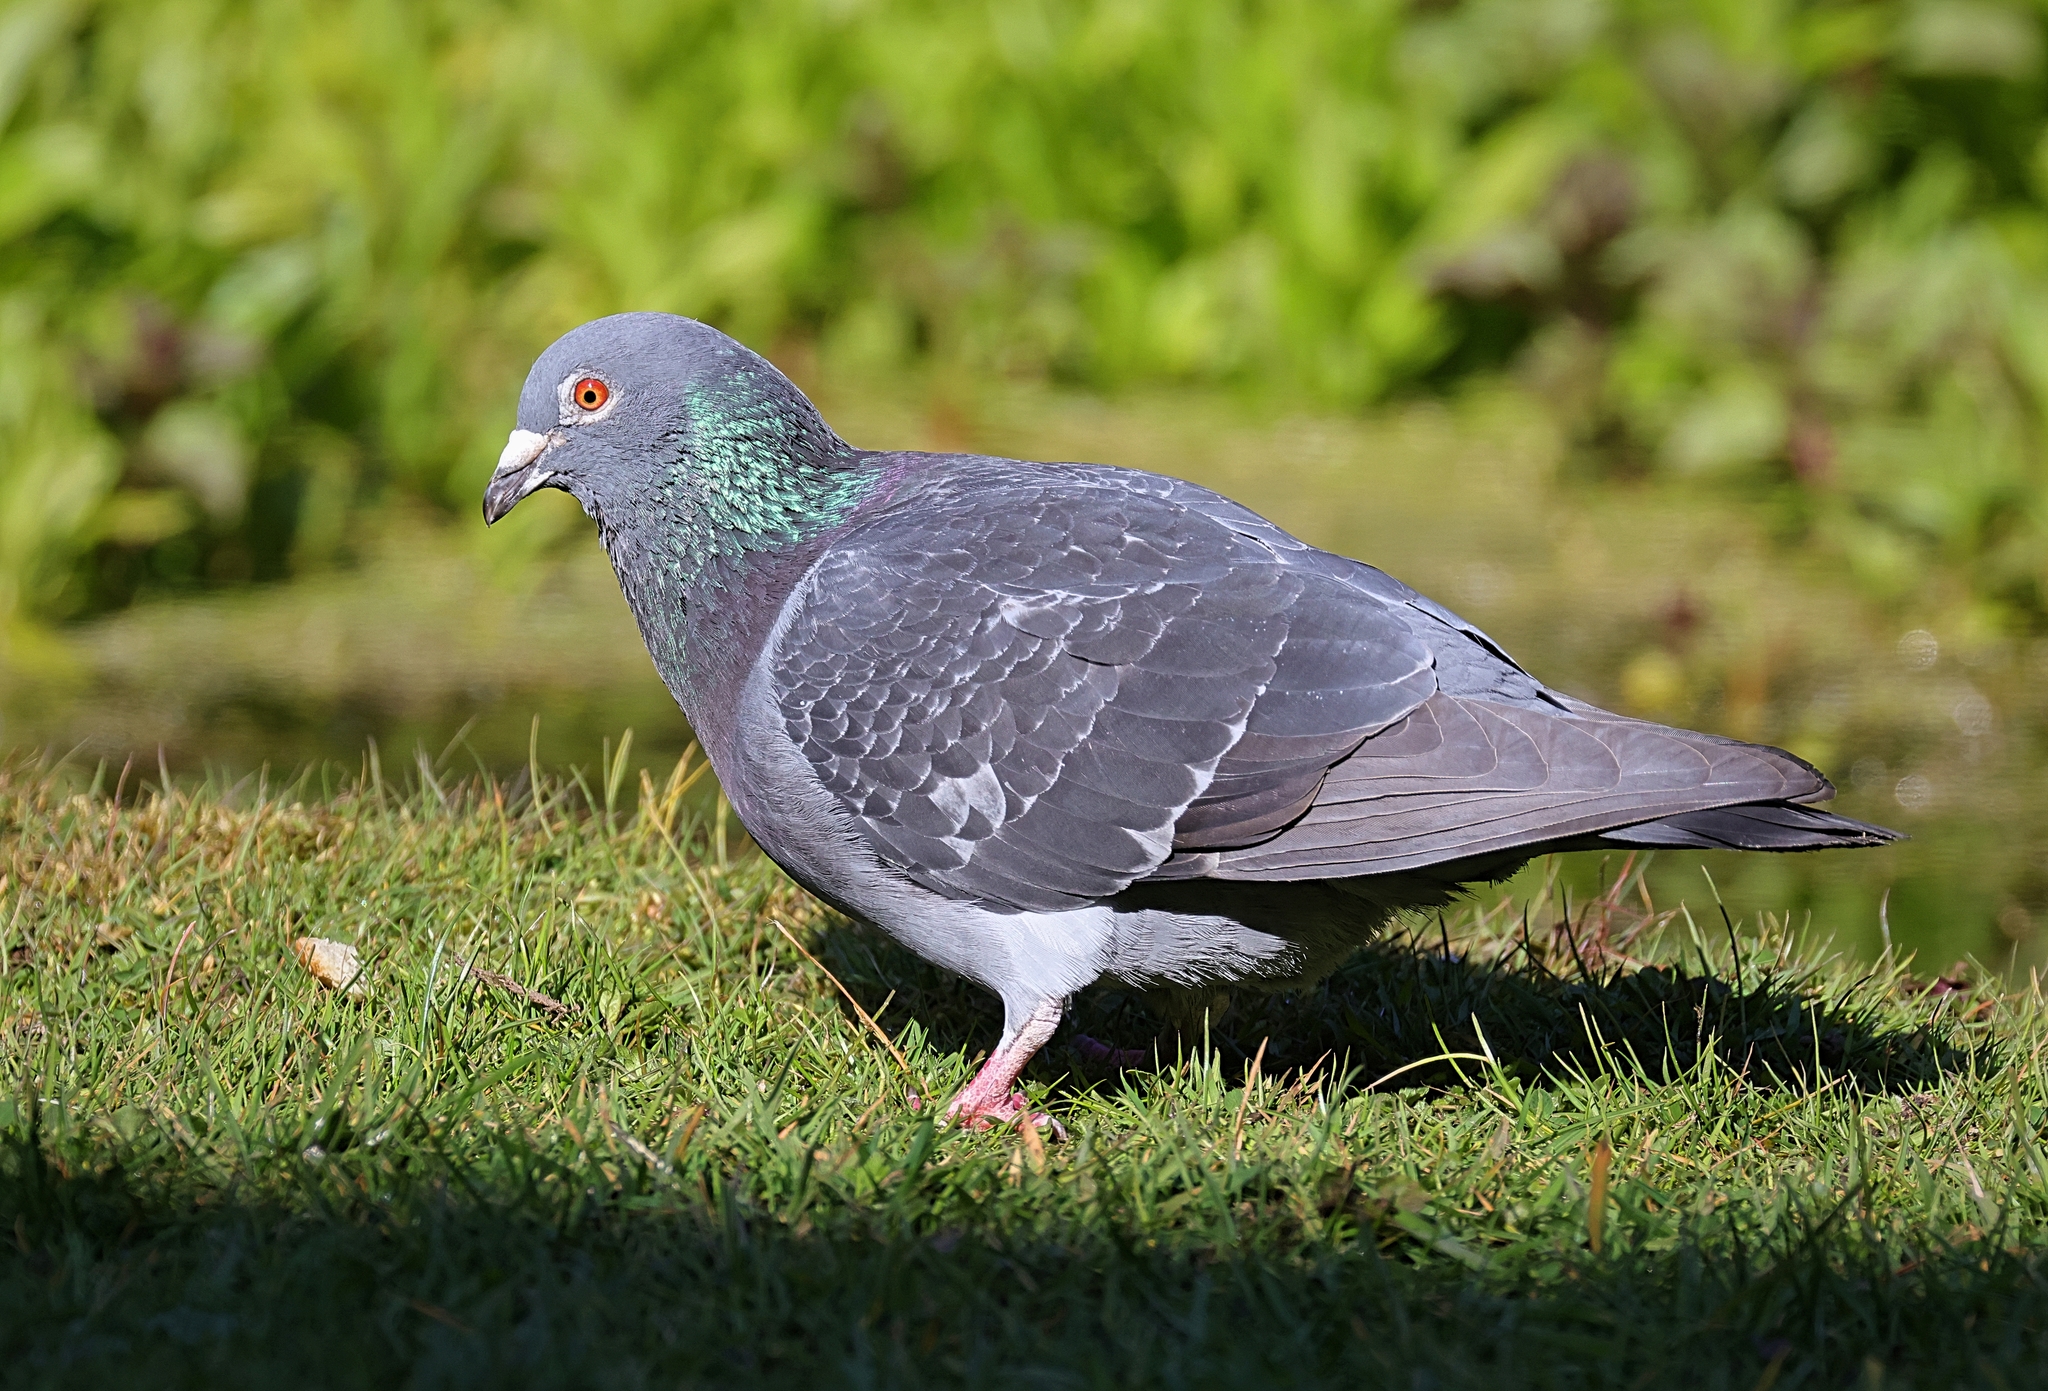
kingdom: Animalia
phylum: Chordata
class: Aves
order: Columbiformes
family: Columbidae
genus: Columba
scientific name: Columba livia
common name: Rock pigeon
